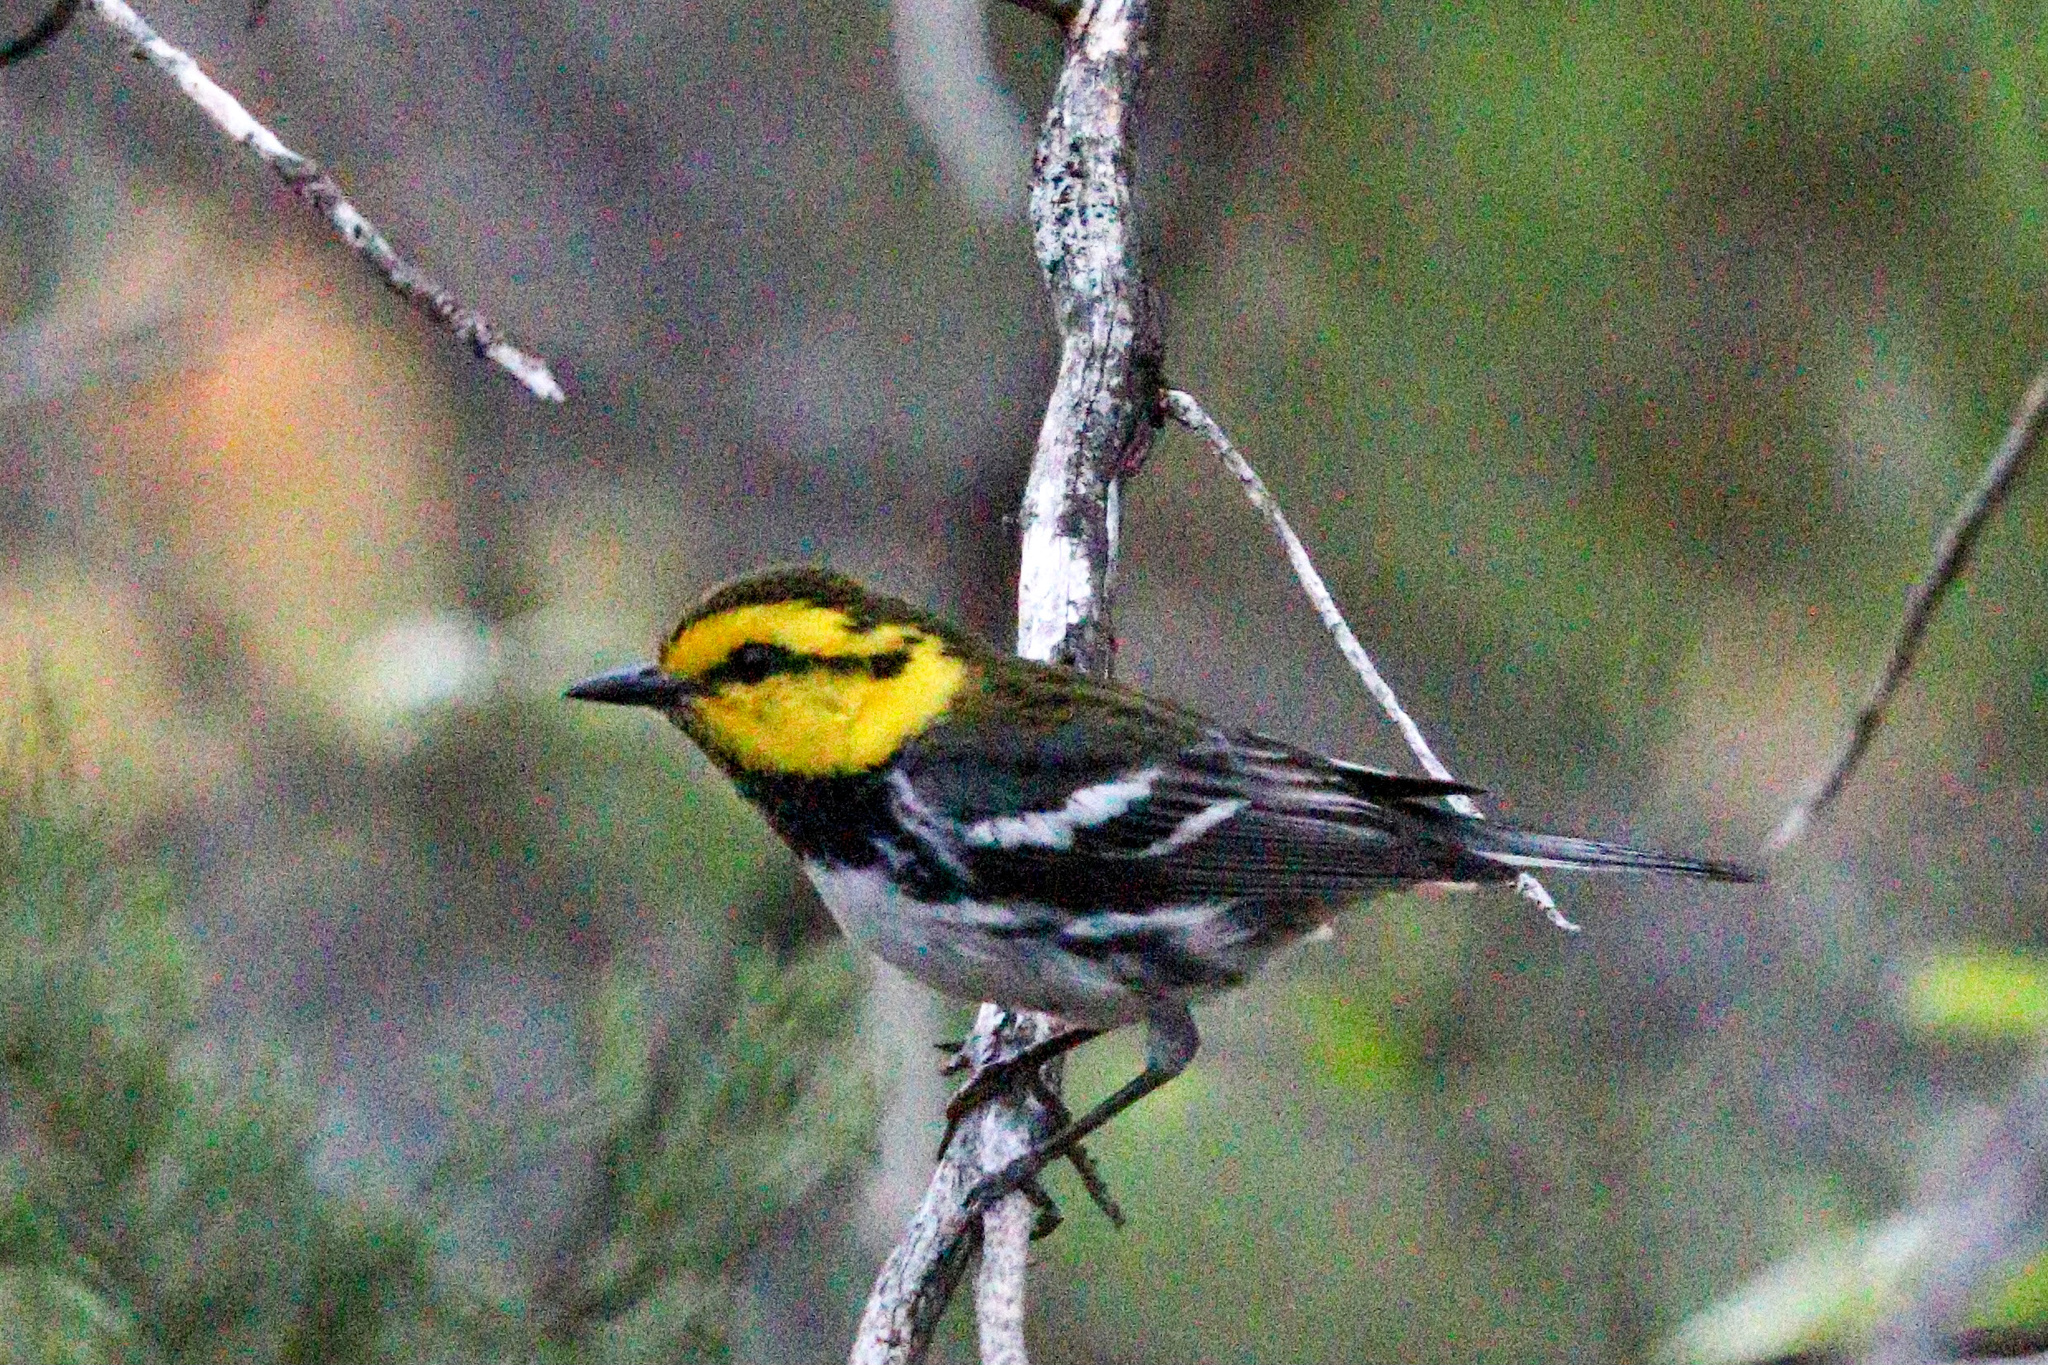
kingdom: Animalia
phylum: Chordata
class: Aves
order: Passeriformes
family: Parulidae
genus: Setophaga
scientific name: Setophaga chrysoparia
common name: Golden-cheeked warbler
